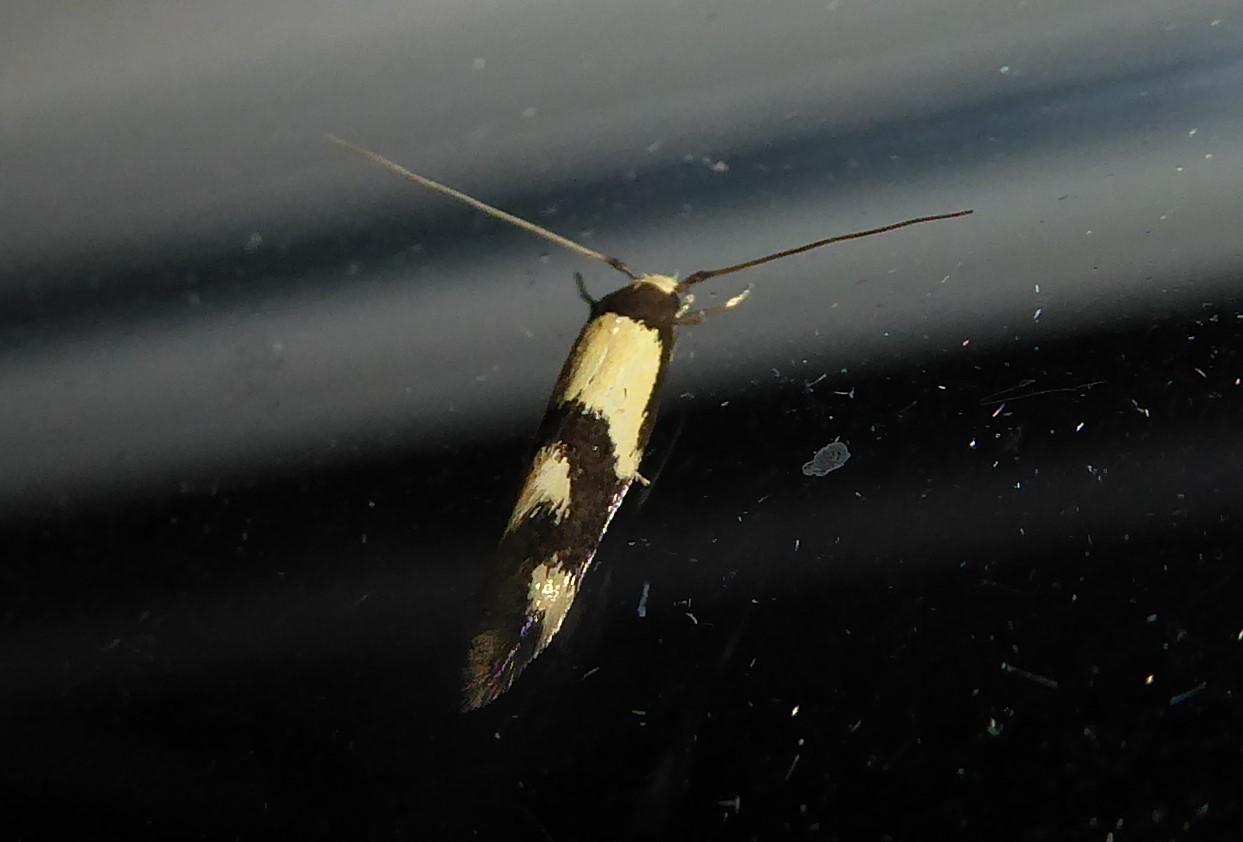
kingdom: Animalia
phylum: Arthropoda
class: Insecta
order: Lepidoptera
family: Tineidae
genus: Opogona
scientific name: Opogona comptella
